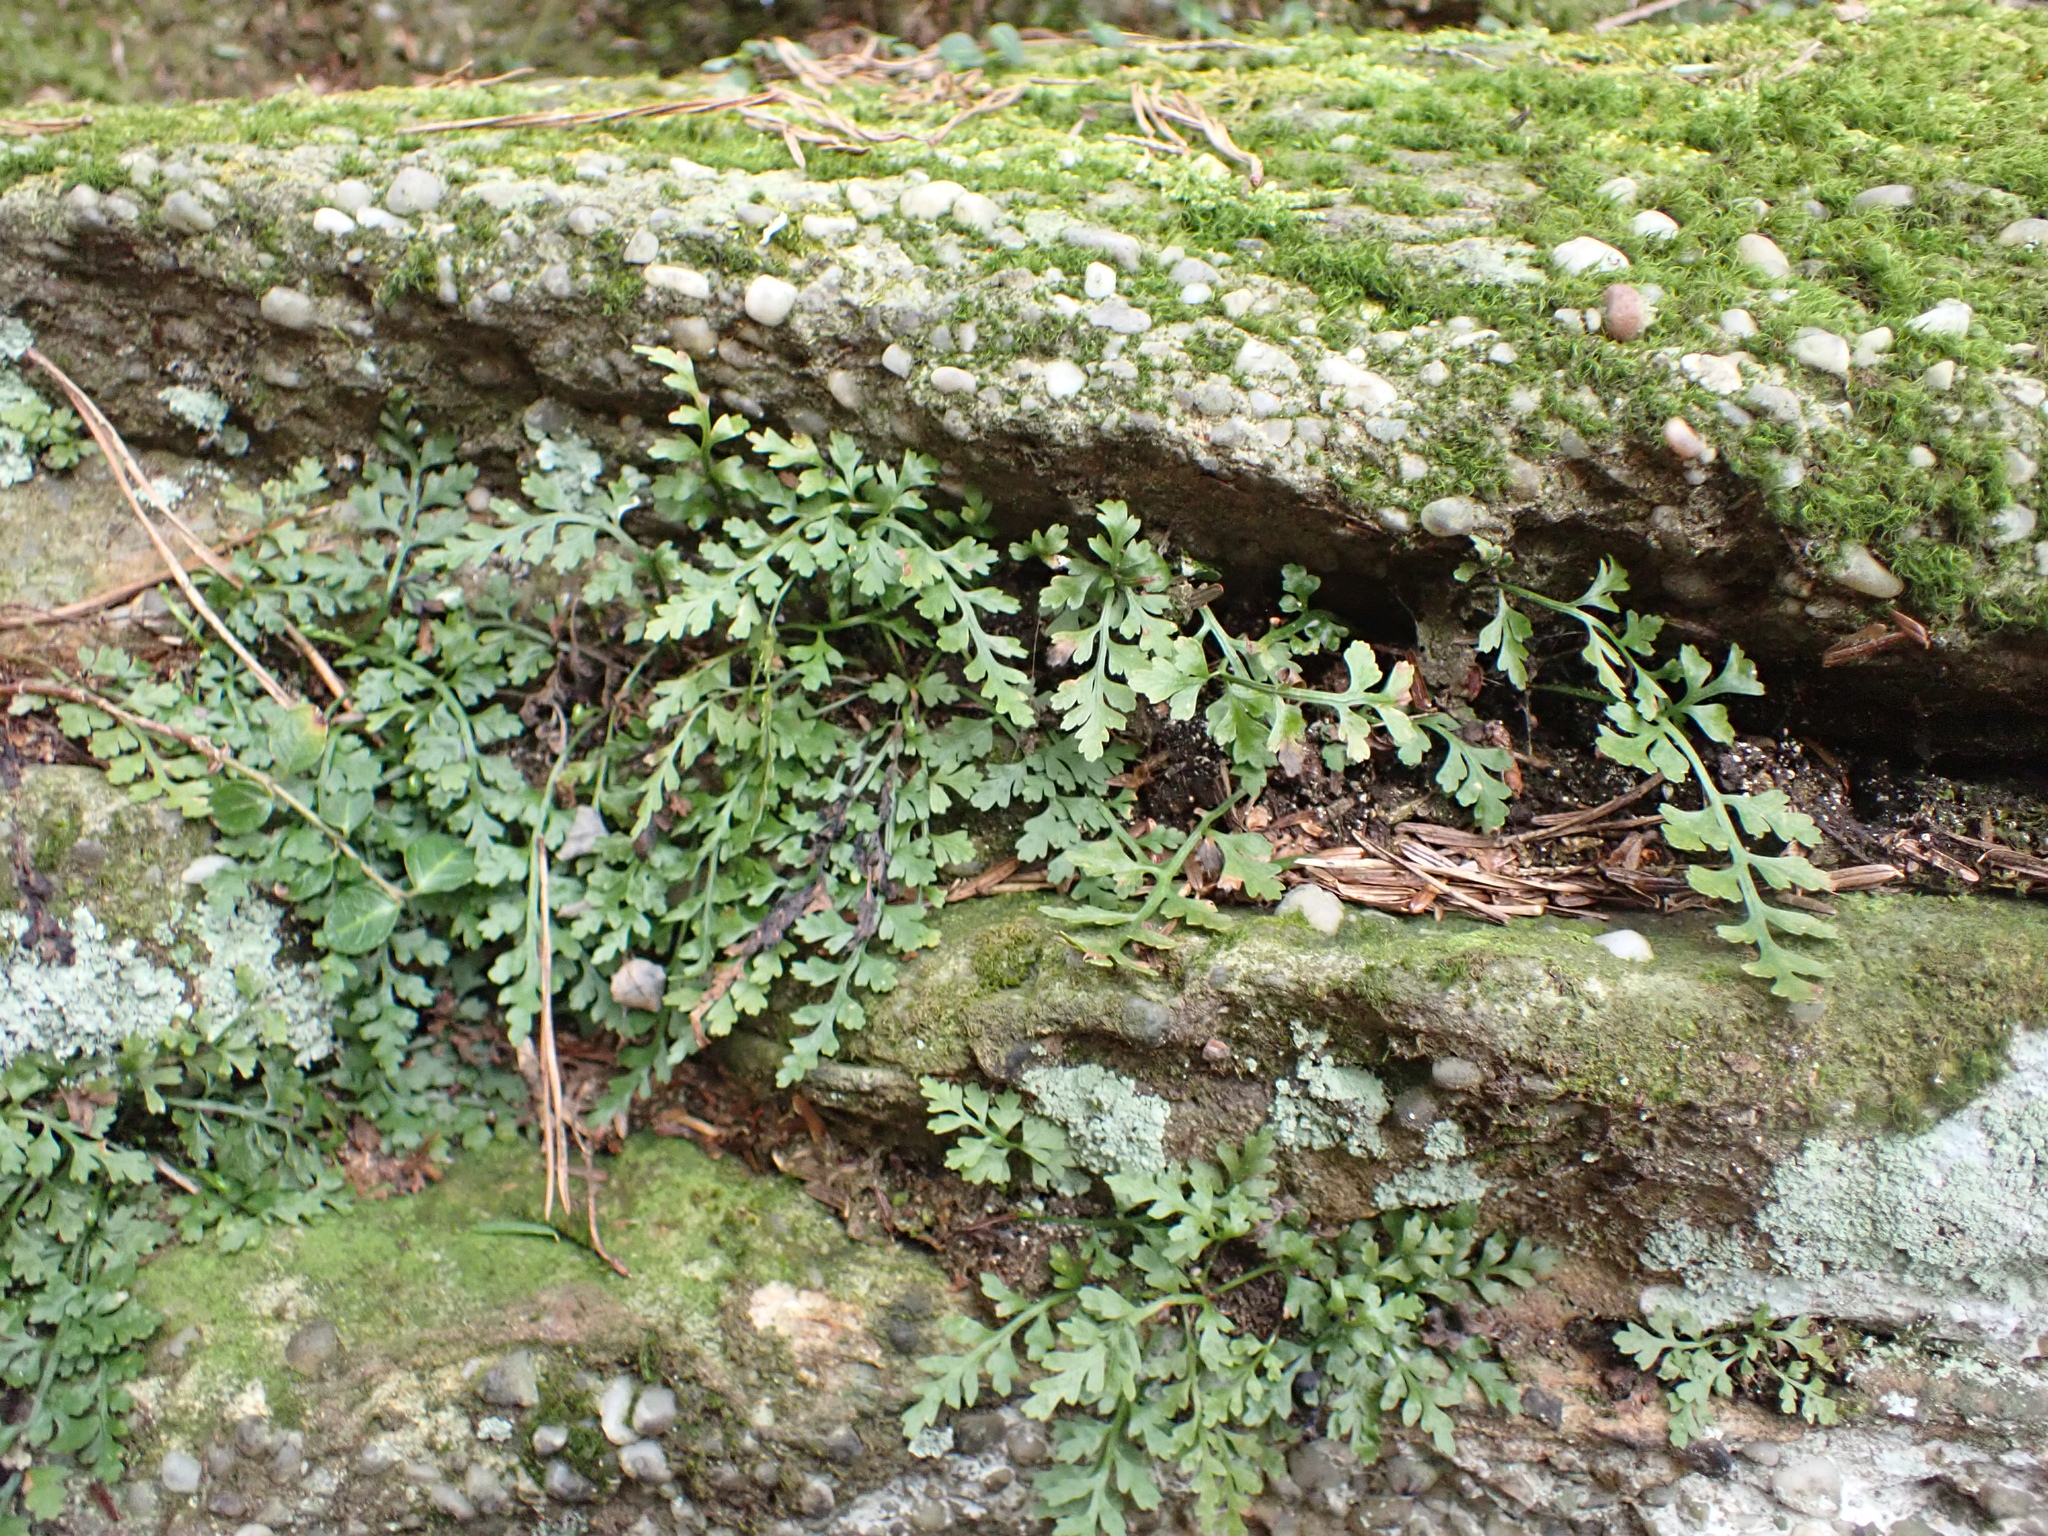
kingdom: Plantae
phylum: Tracheophyta
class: Polypodiopsida
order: Polypodiales
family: Aspleniaceae
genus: Asplenium
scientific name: Asplenium montanum
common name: Mountain spleenwort
